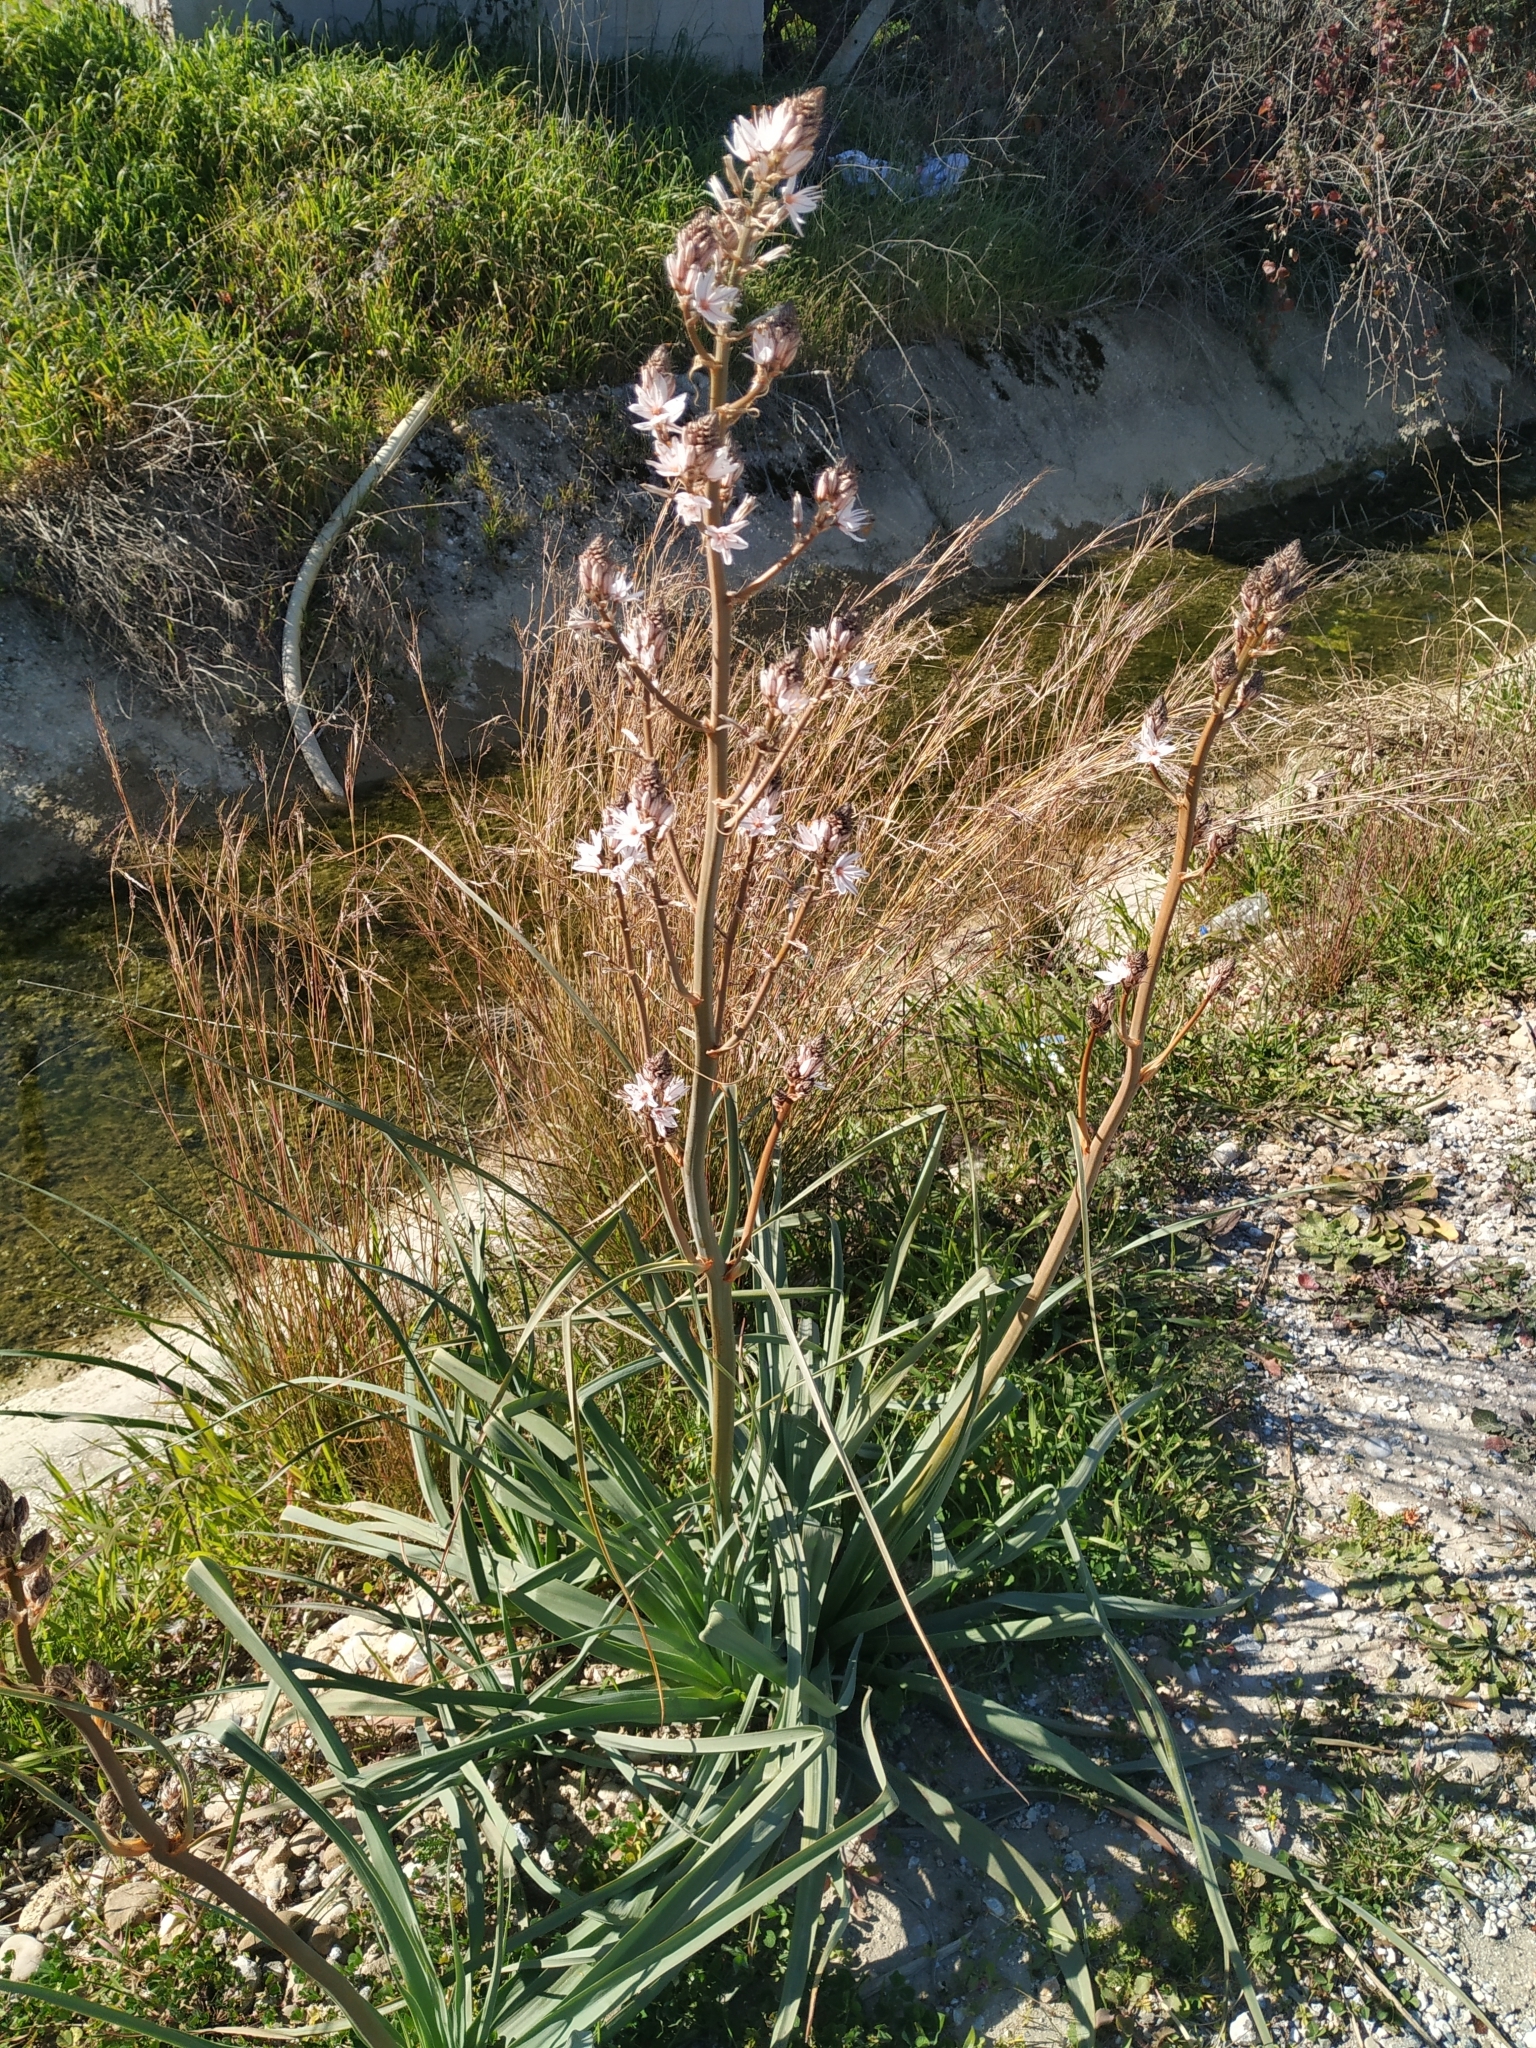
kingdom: Plantae
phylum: Tracheophyta
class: Liliopsida
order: Asparagales
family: Asphodelaceae
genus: Asphodelus
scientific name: Asphodelus ramosus
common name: Silverrod
